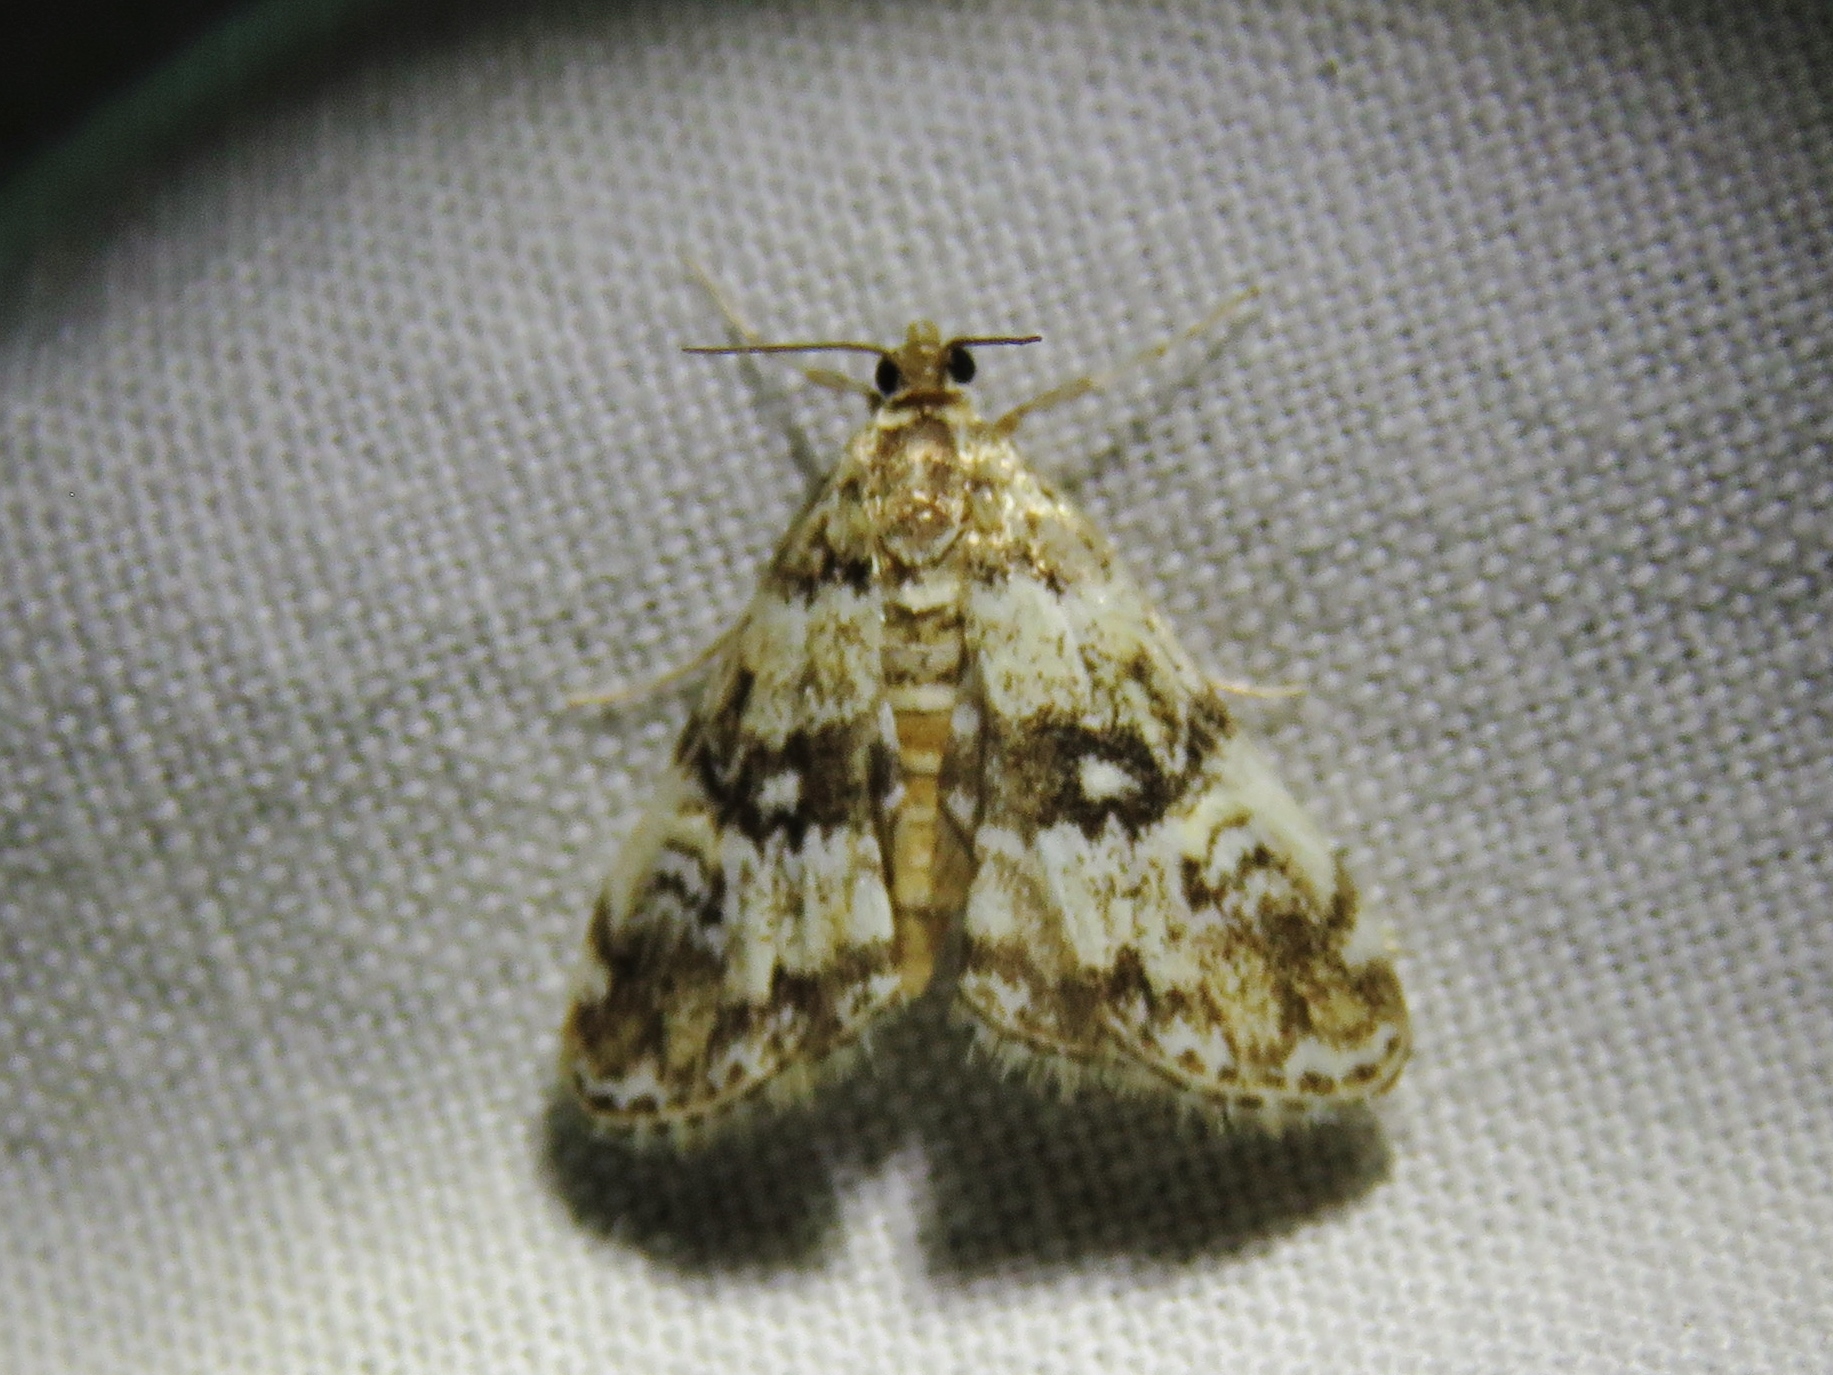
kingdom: Animalia
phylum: Arthropoda
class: Insecta
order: Lepidoptera
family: Crambidae
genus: Elophila
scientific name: Elophila obliteralis
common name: Waterlily leafcutter moth
